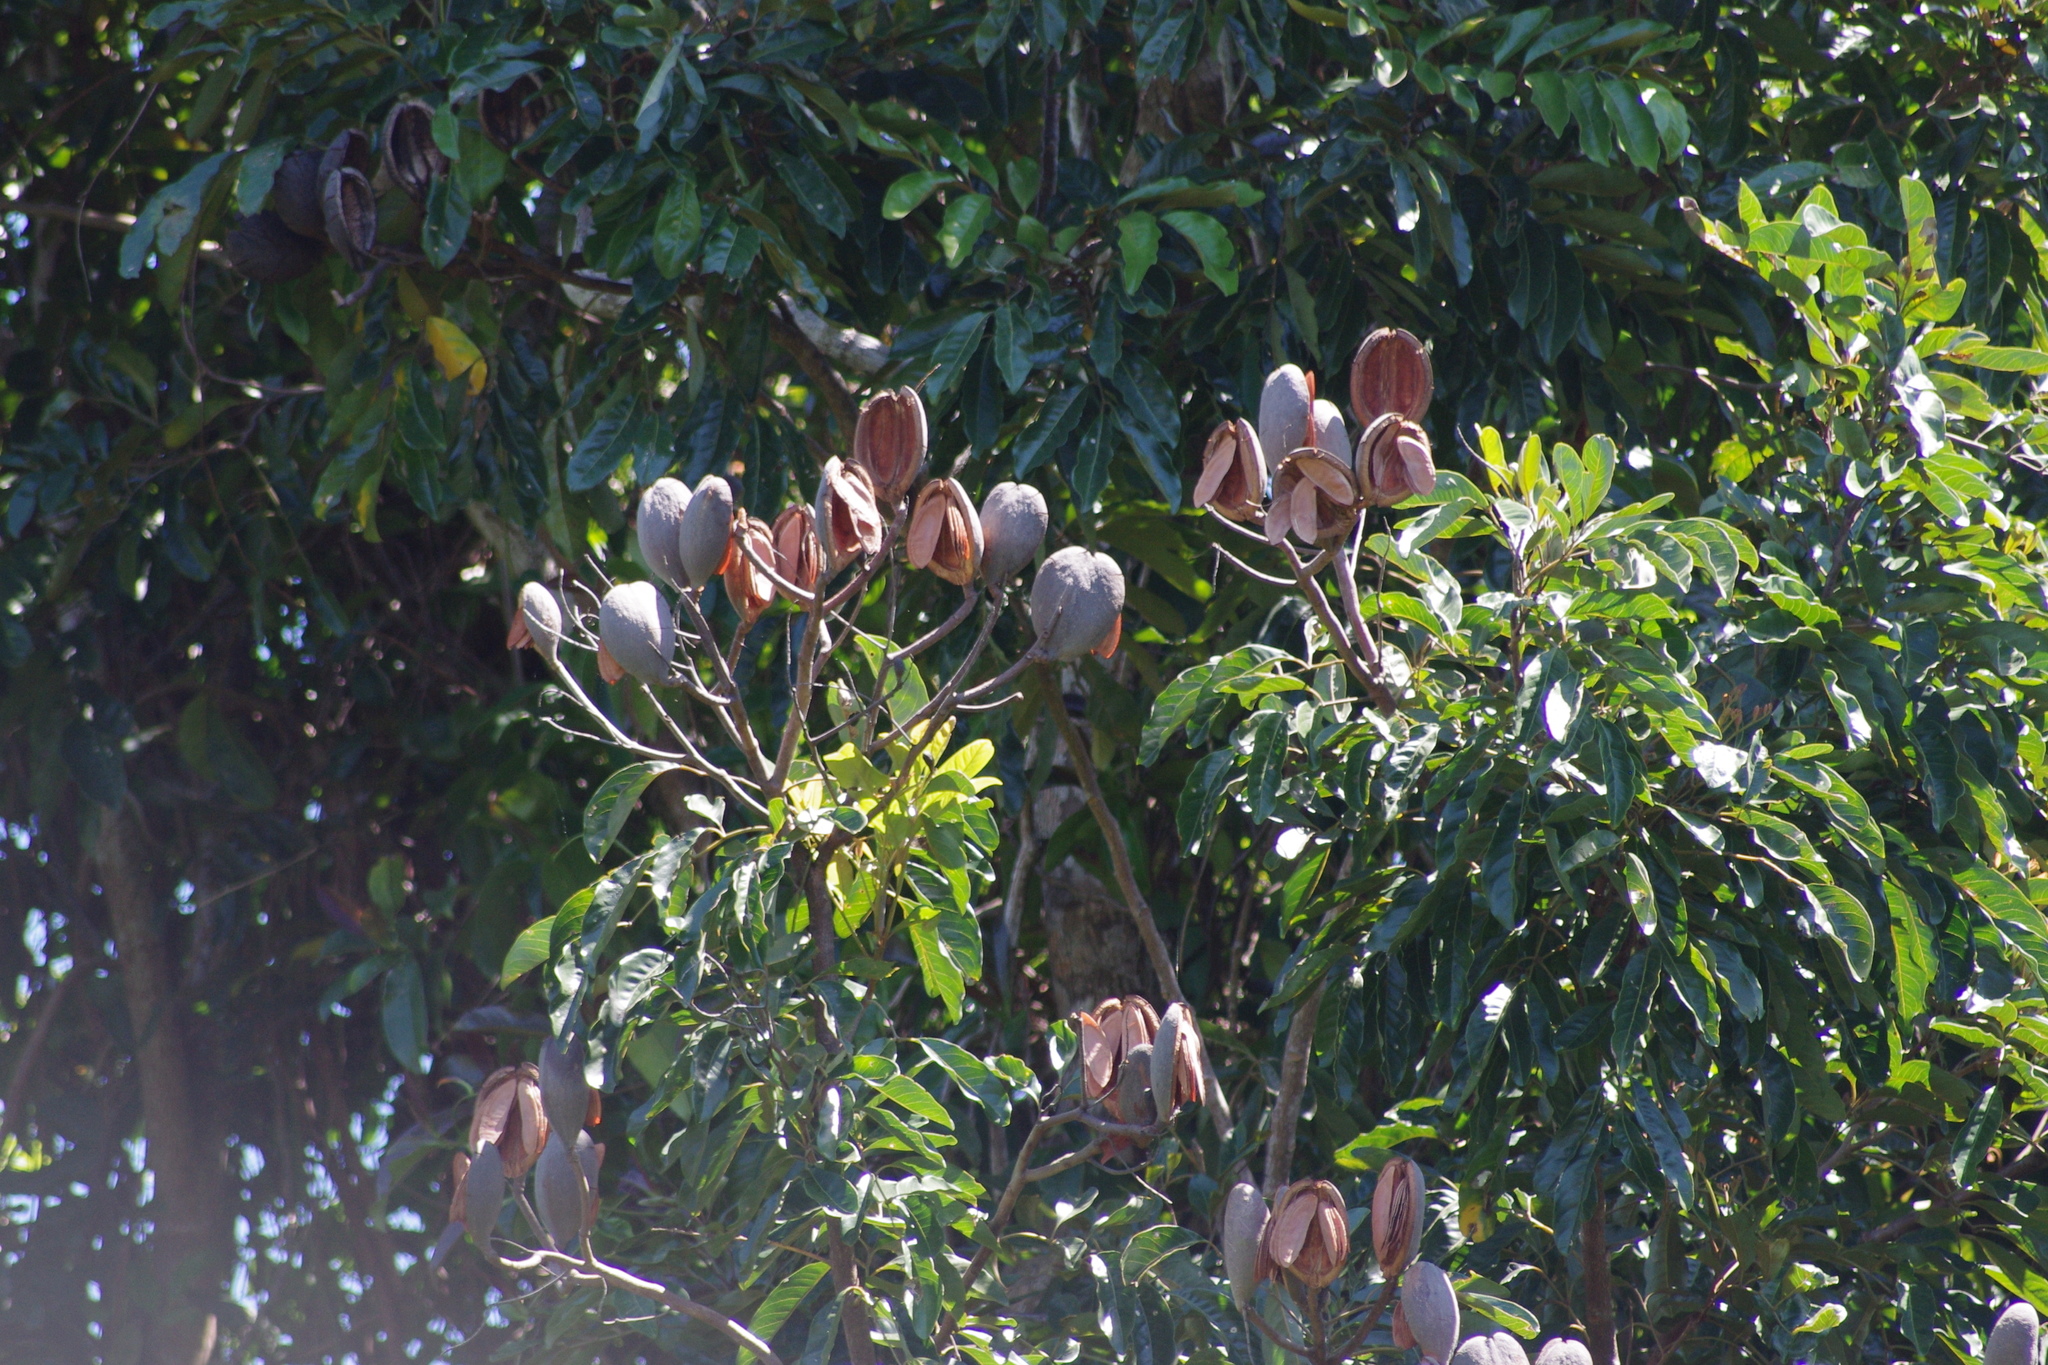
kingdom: Plantae
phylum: Tracheophyta
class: Magnoliopsida
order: Proteales
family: Proteaceae
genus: Cardwellia
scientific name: Cardwellia sublimis
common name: Bull oak
